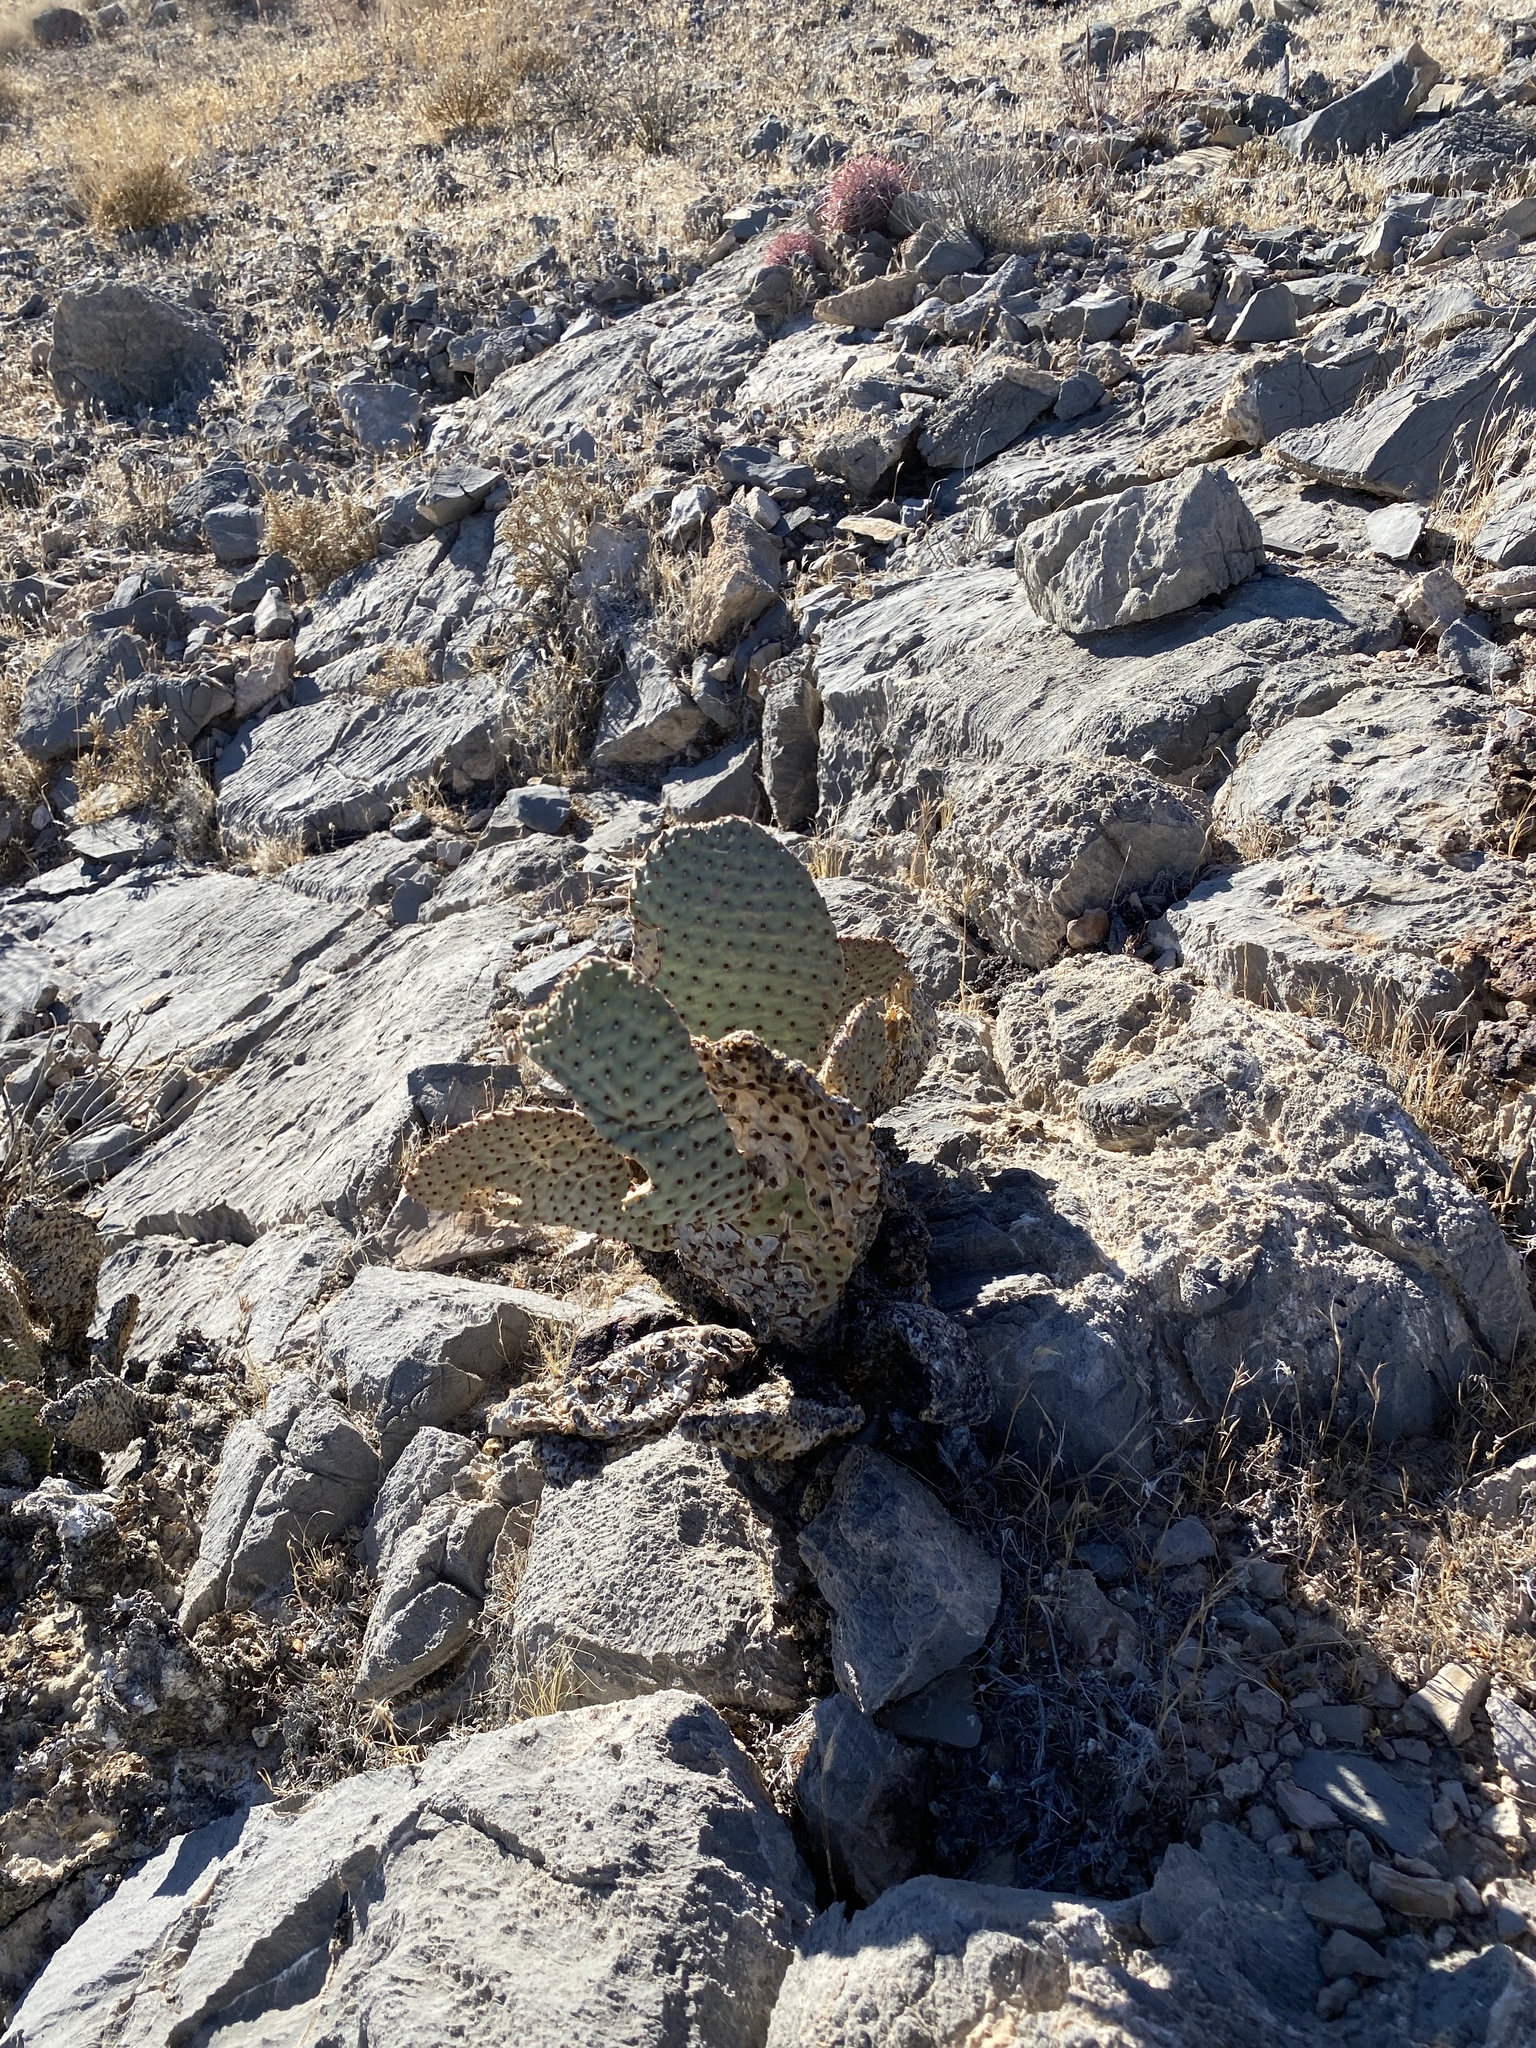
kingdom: Plantae
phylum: Tracheophyta
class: Magnoliopsida
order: Caryophyllales
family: Cactaceae
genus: Opuntia
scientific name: Opuntia basilaris
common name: Beavertail prickly-pear
